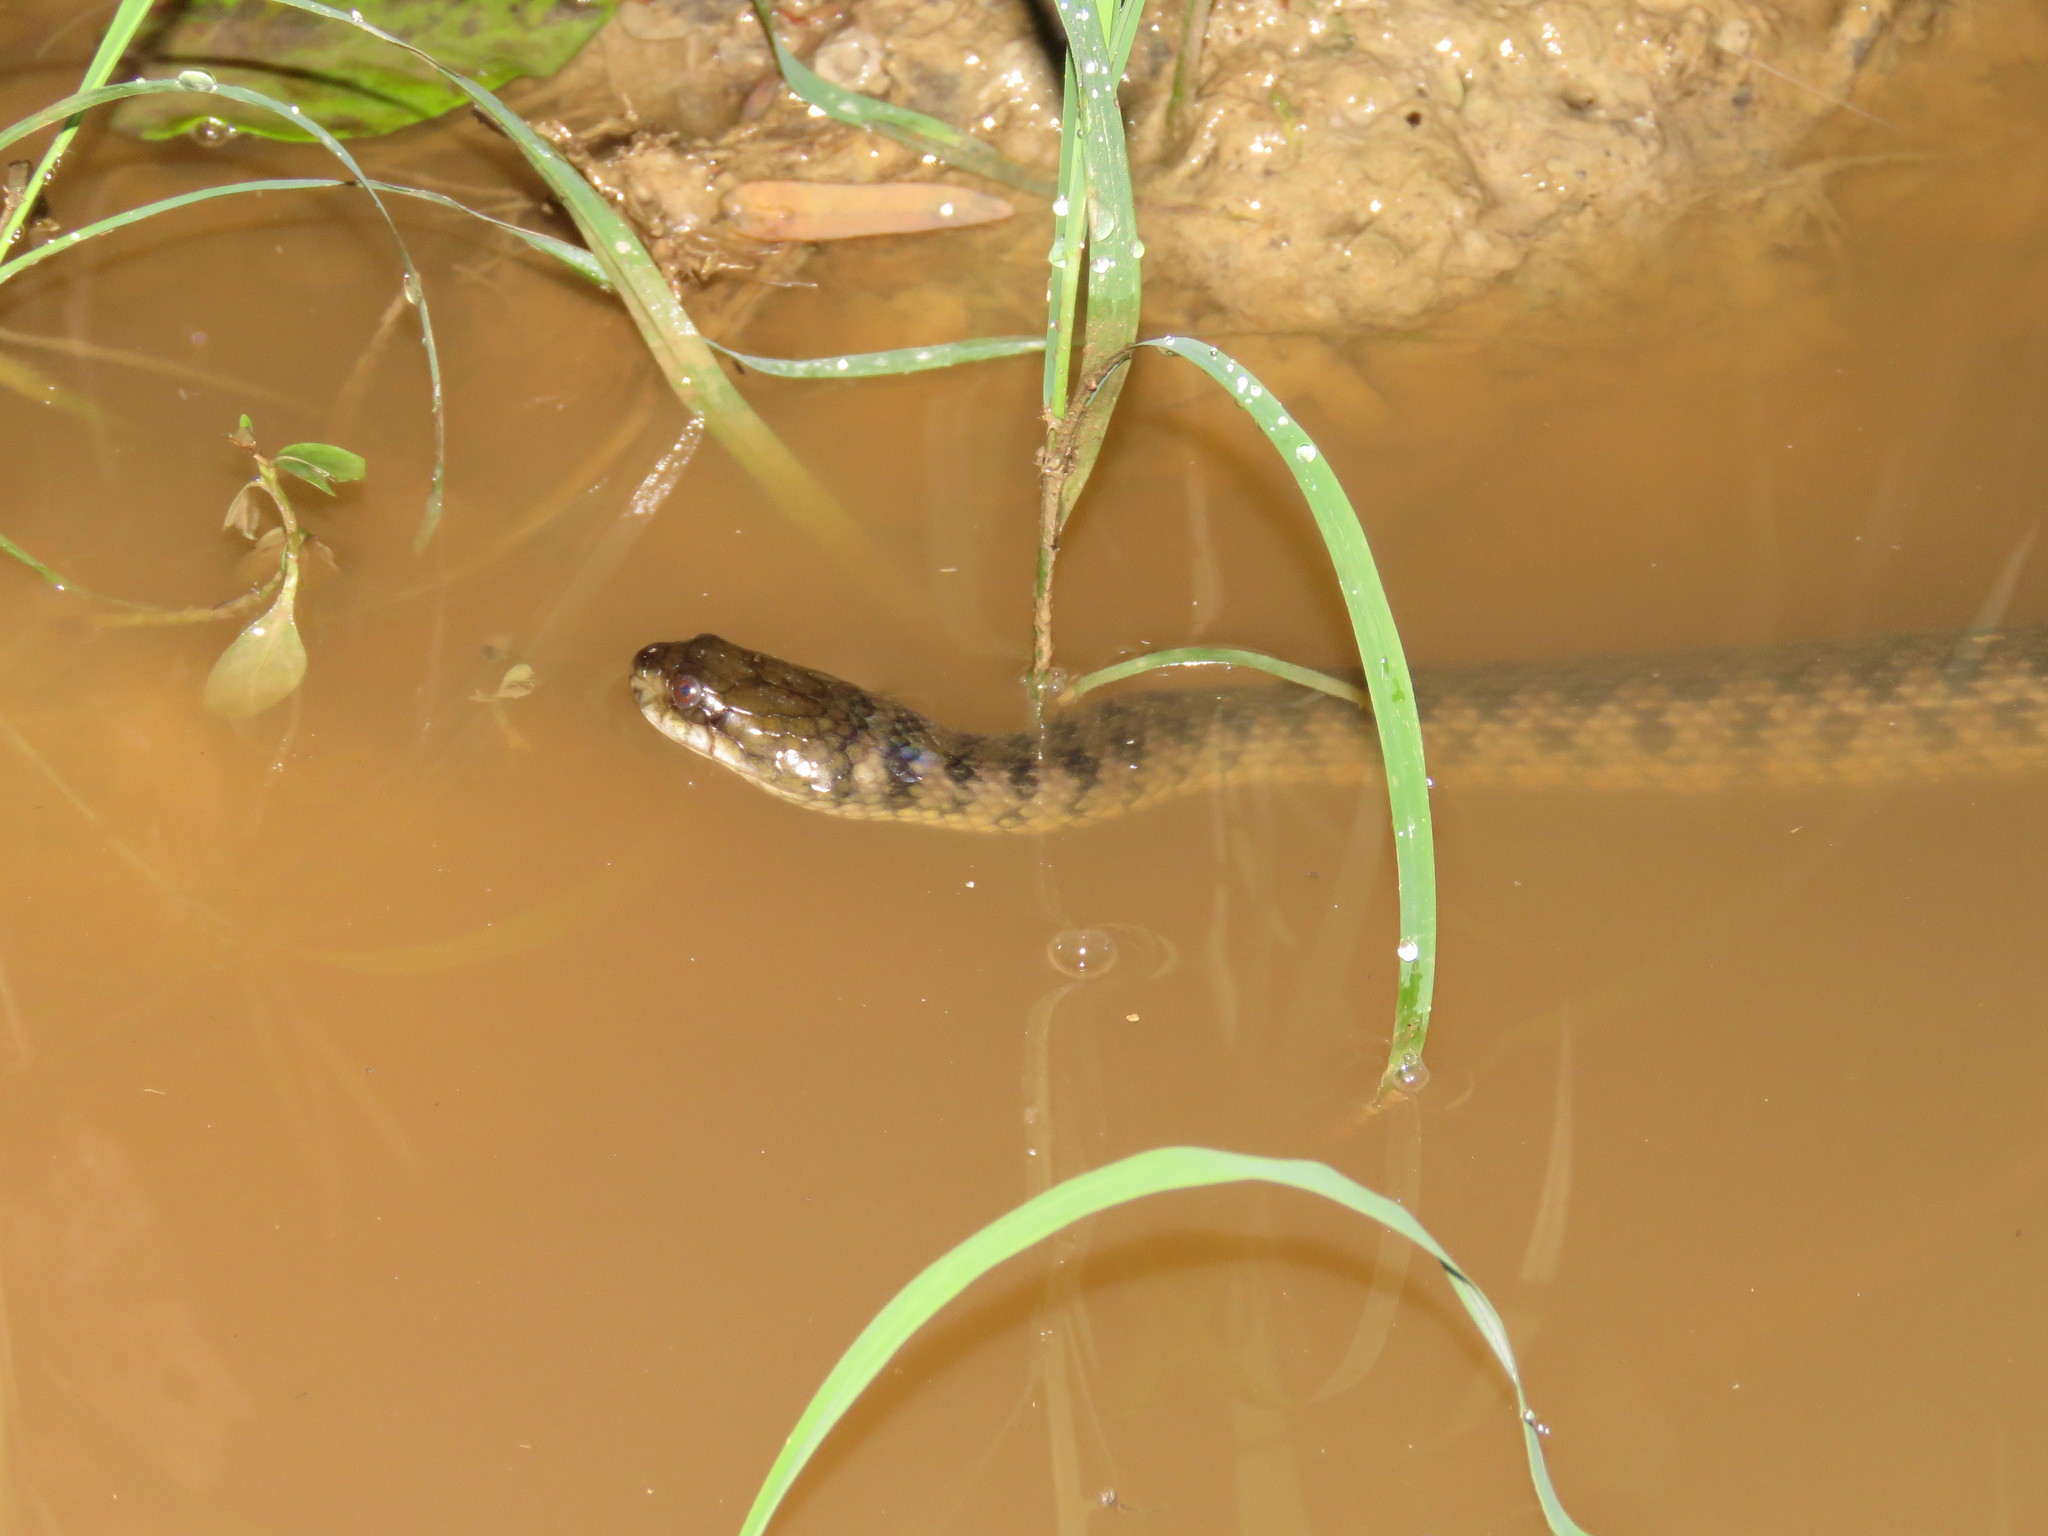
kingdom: Animalia
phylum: Chordata
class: Squamata
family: Colubridae
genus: Helicops
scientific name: Helicops leopardinus
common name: Leopard keelback
